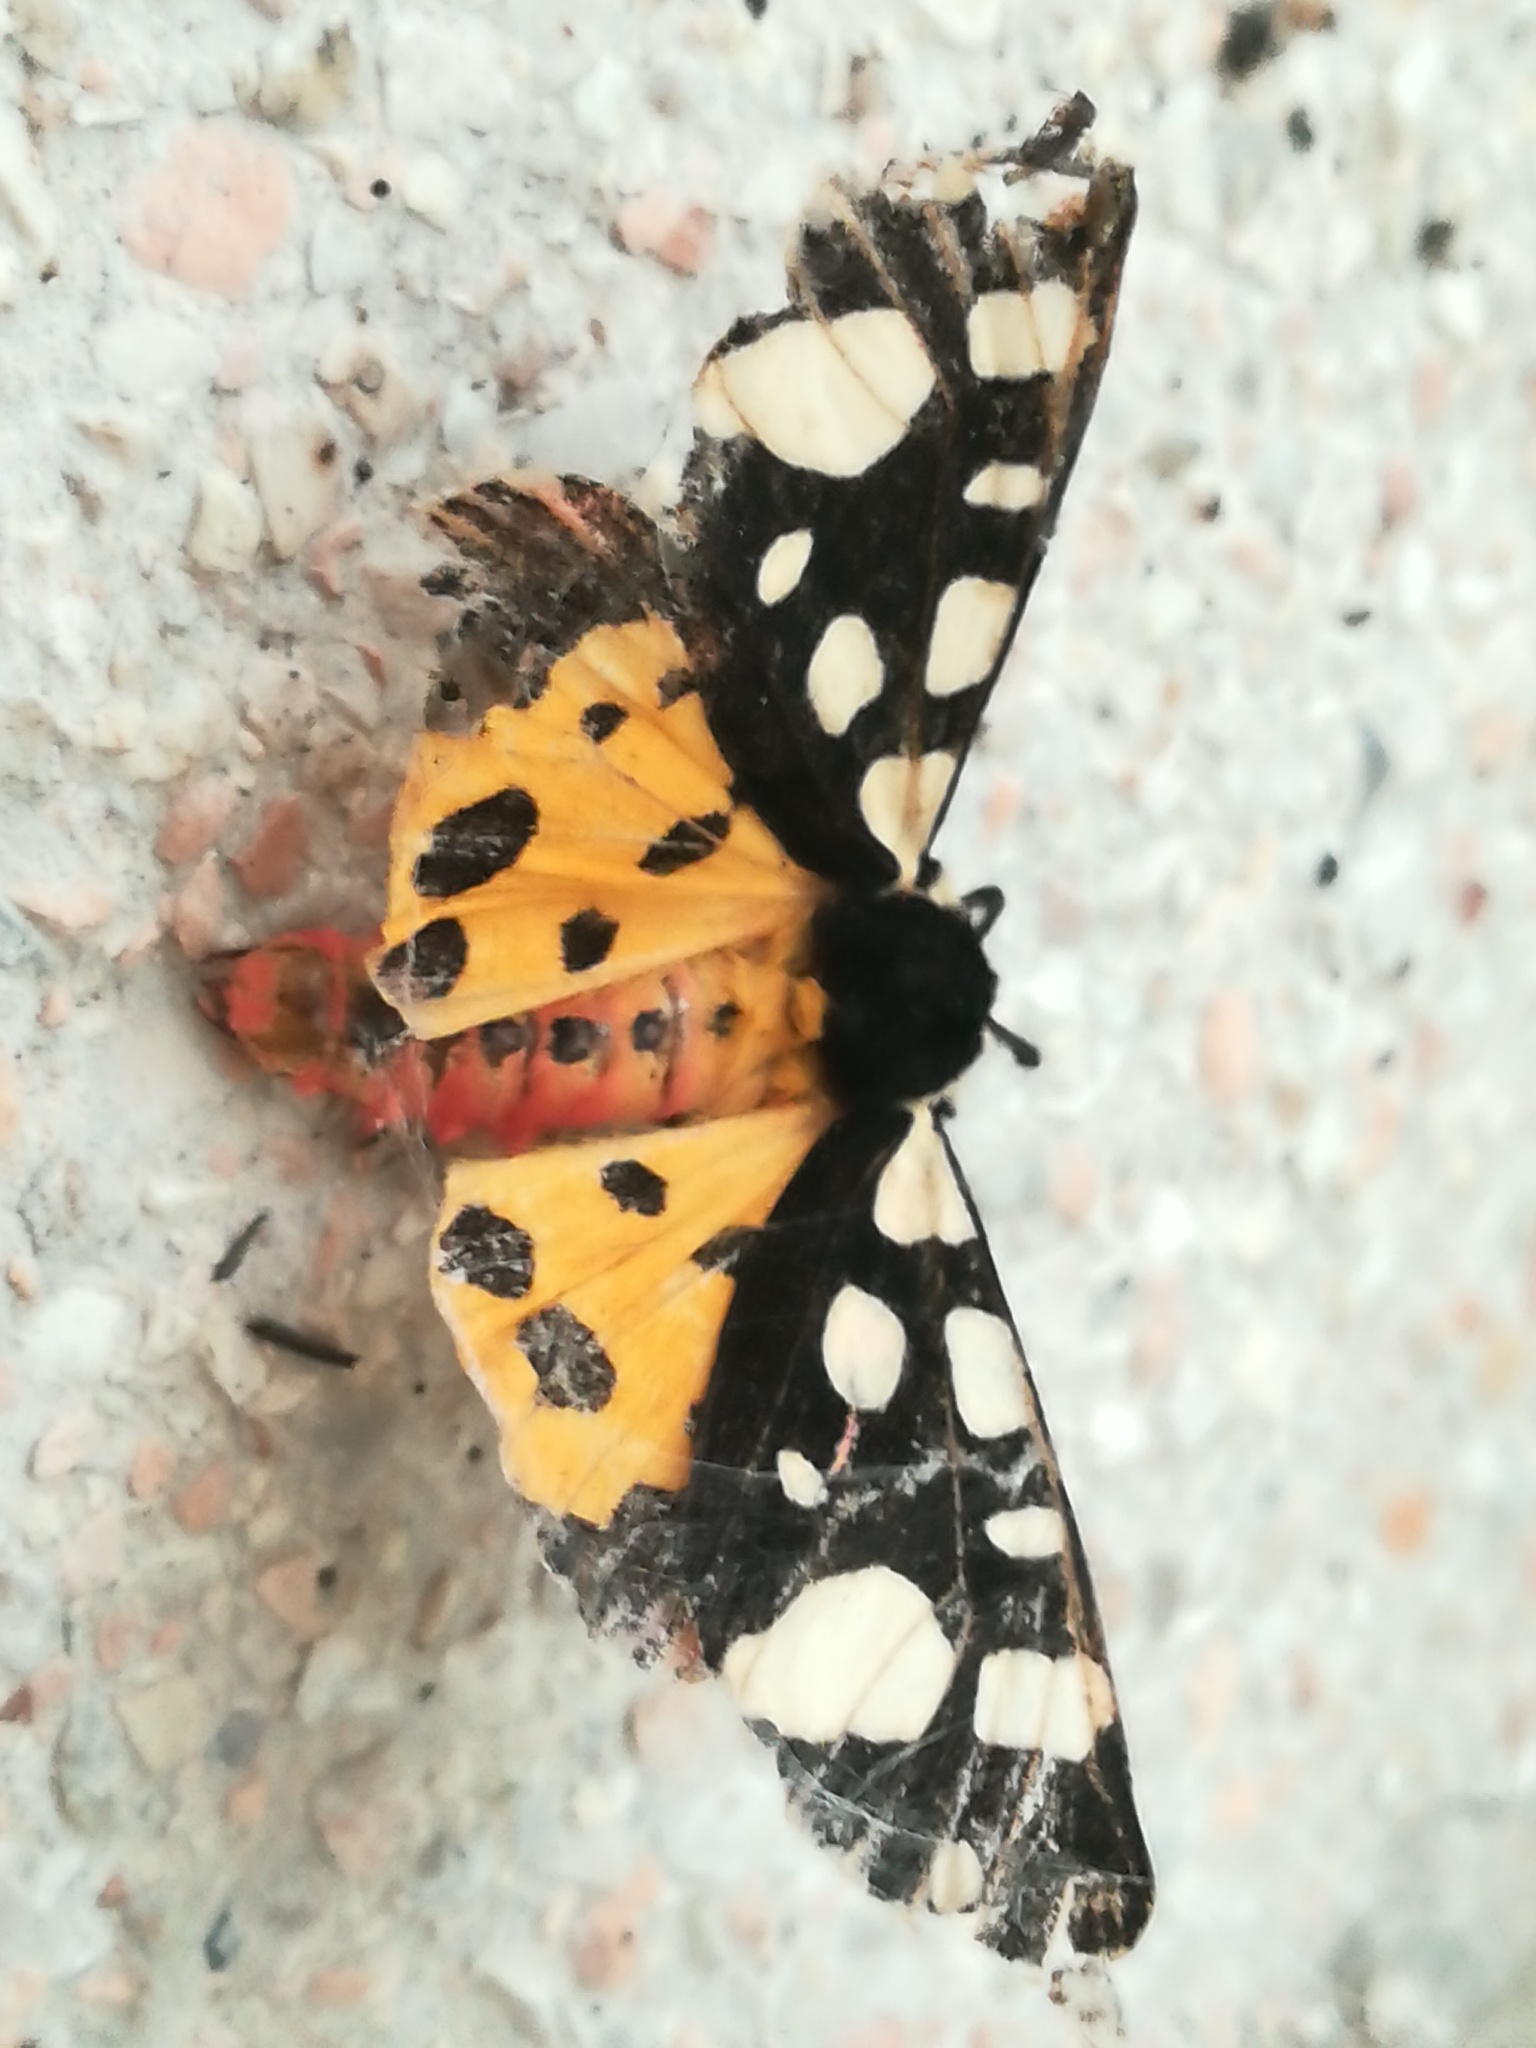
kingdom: Animalia
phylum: Arthropoda
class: Insecta
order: Lepidoptera
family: Erebidae
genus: Epicallia
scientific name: Epicallia villica
